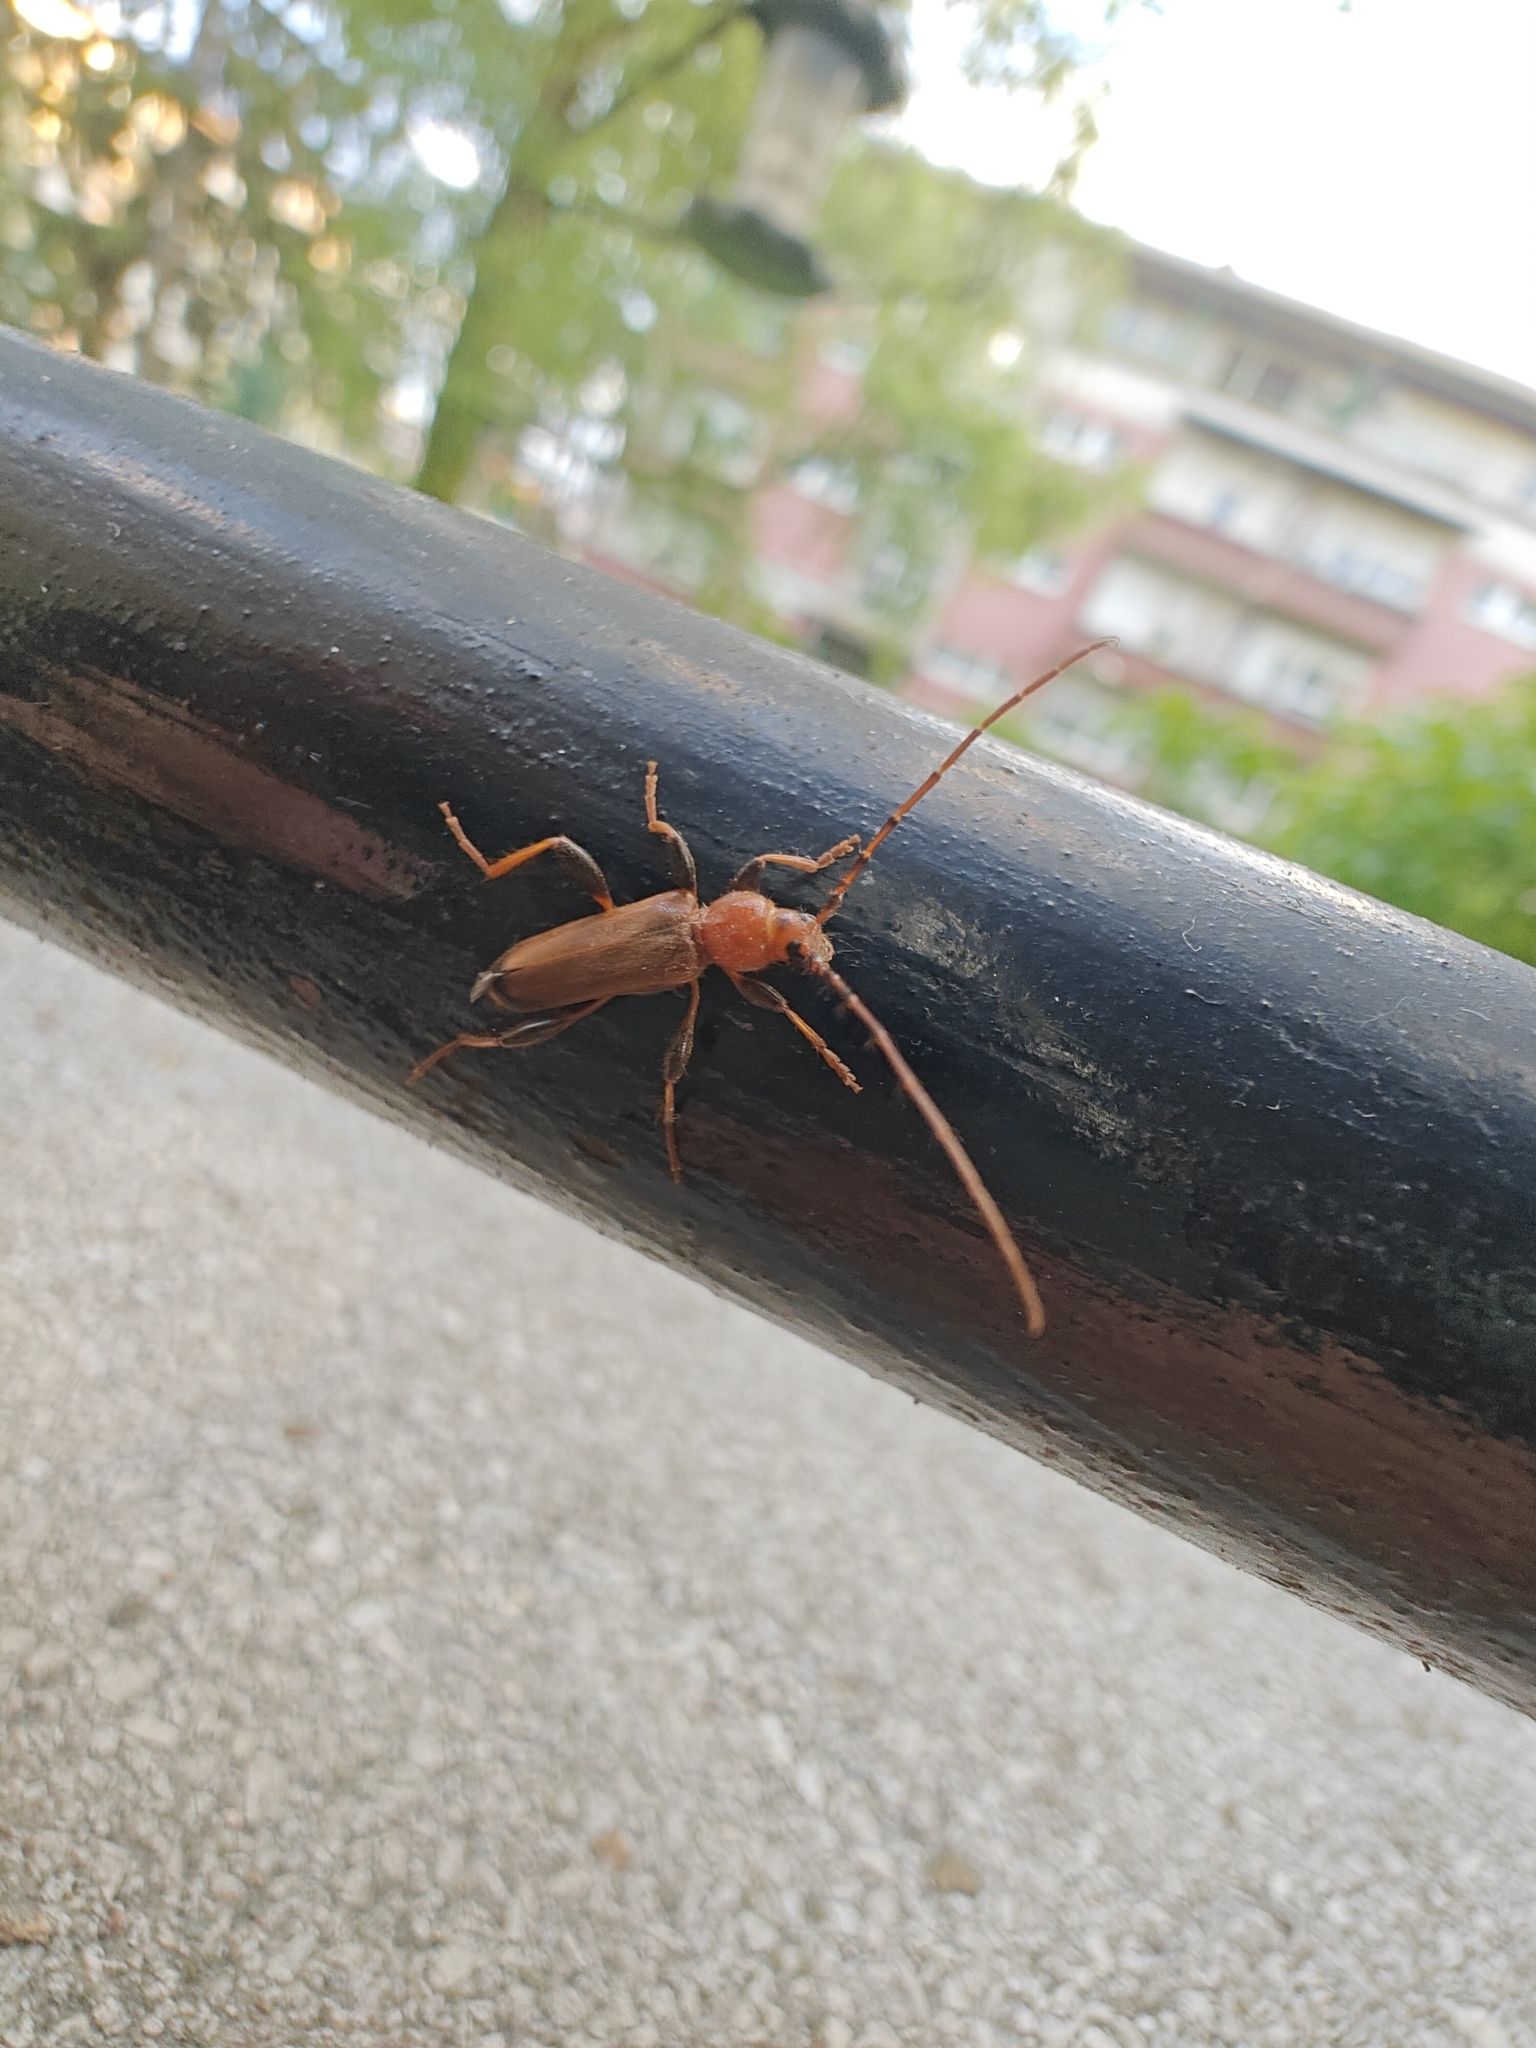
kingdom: Animalia
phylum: Arthropoda
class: Insecta
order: Coleoptera
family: Cerambycidae
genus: Phymatodes
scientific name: Phymatodes testaceus
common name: Long-horned beetle
